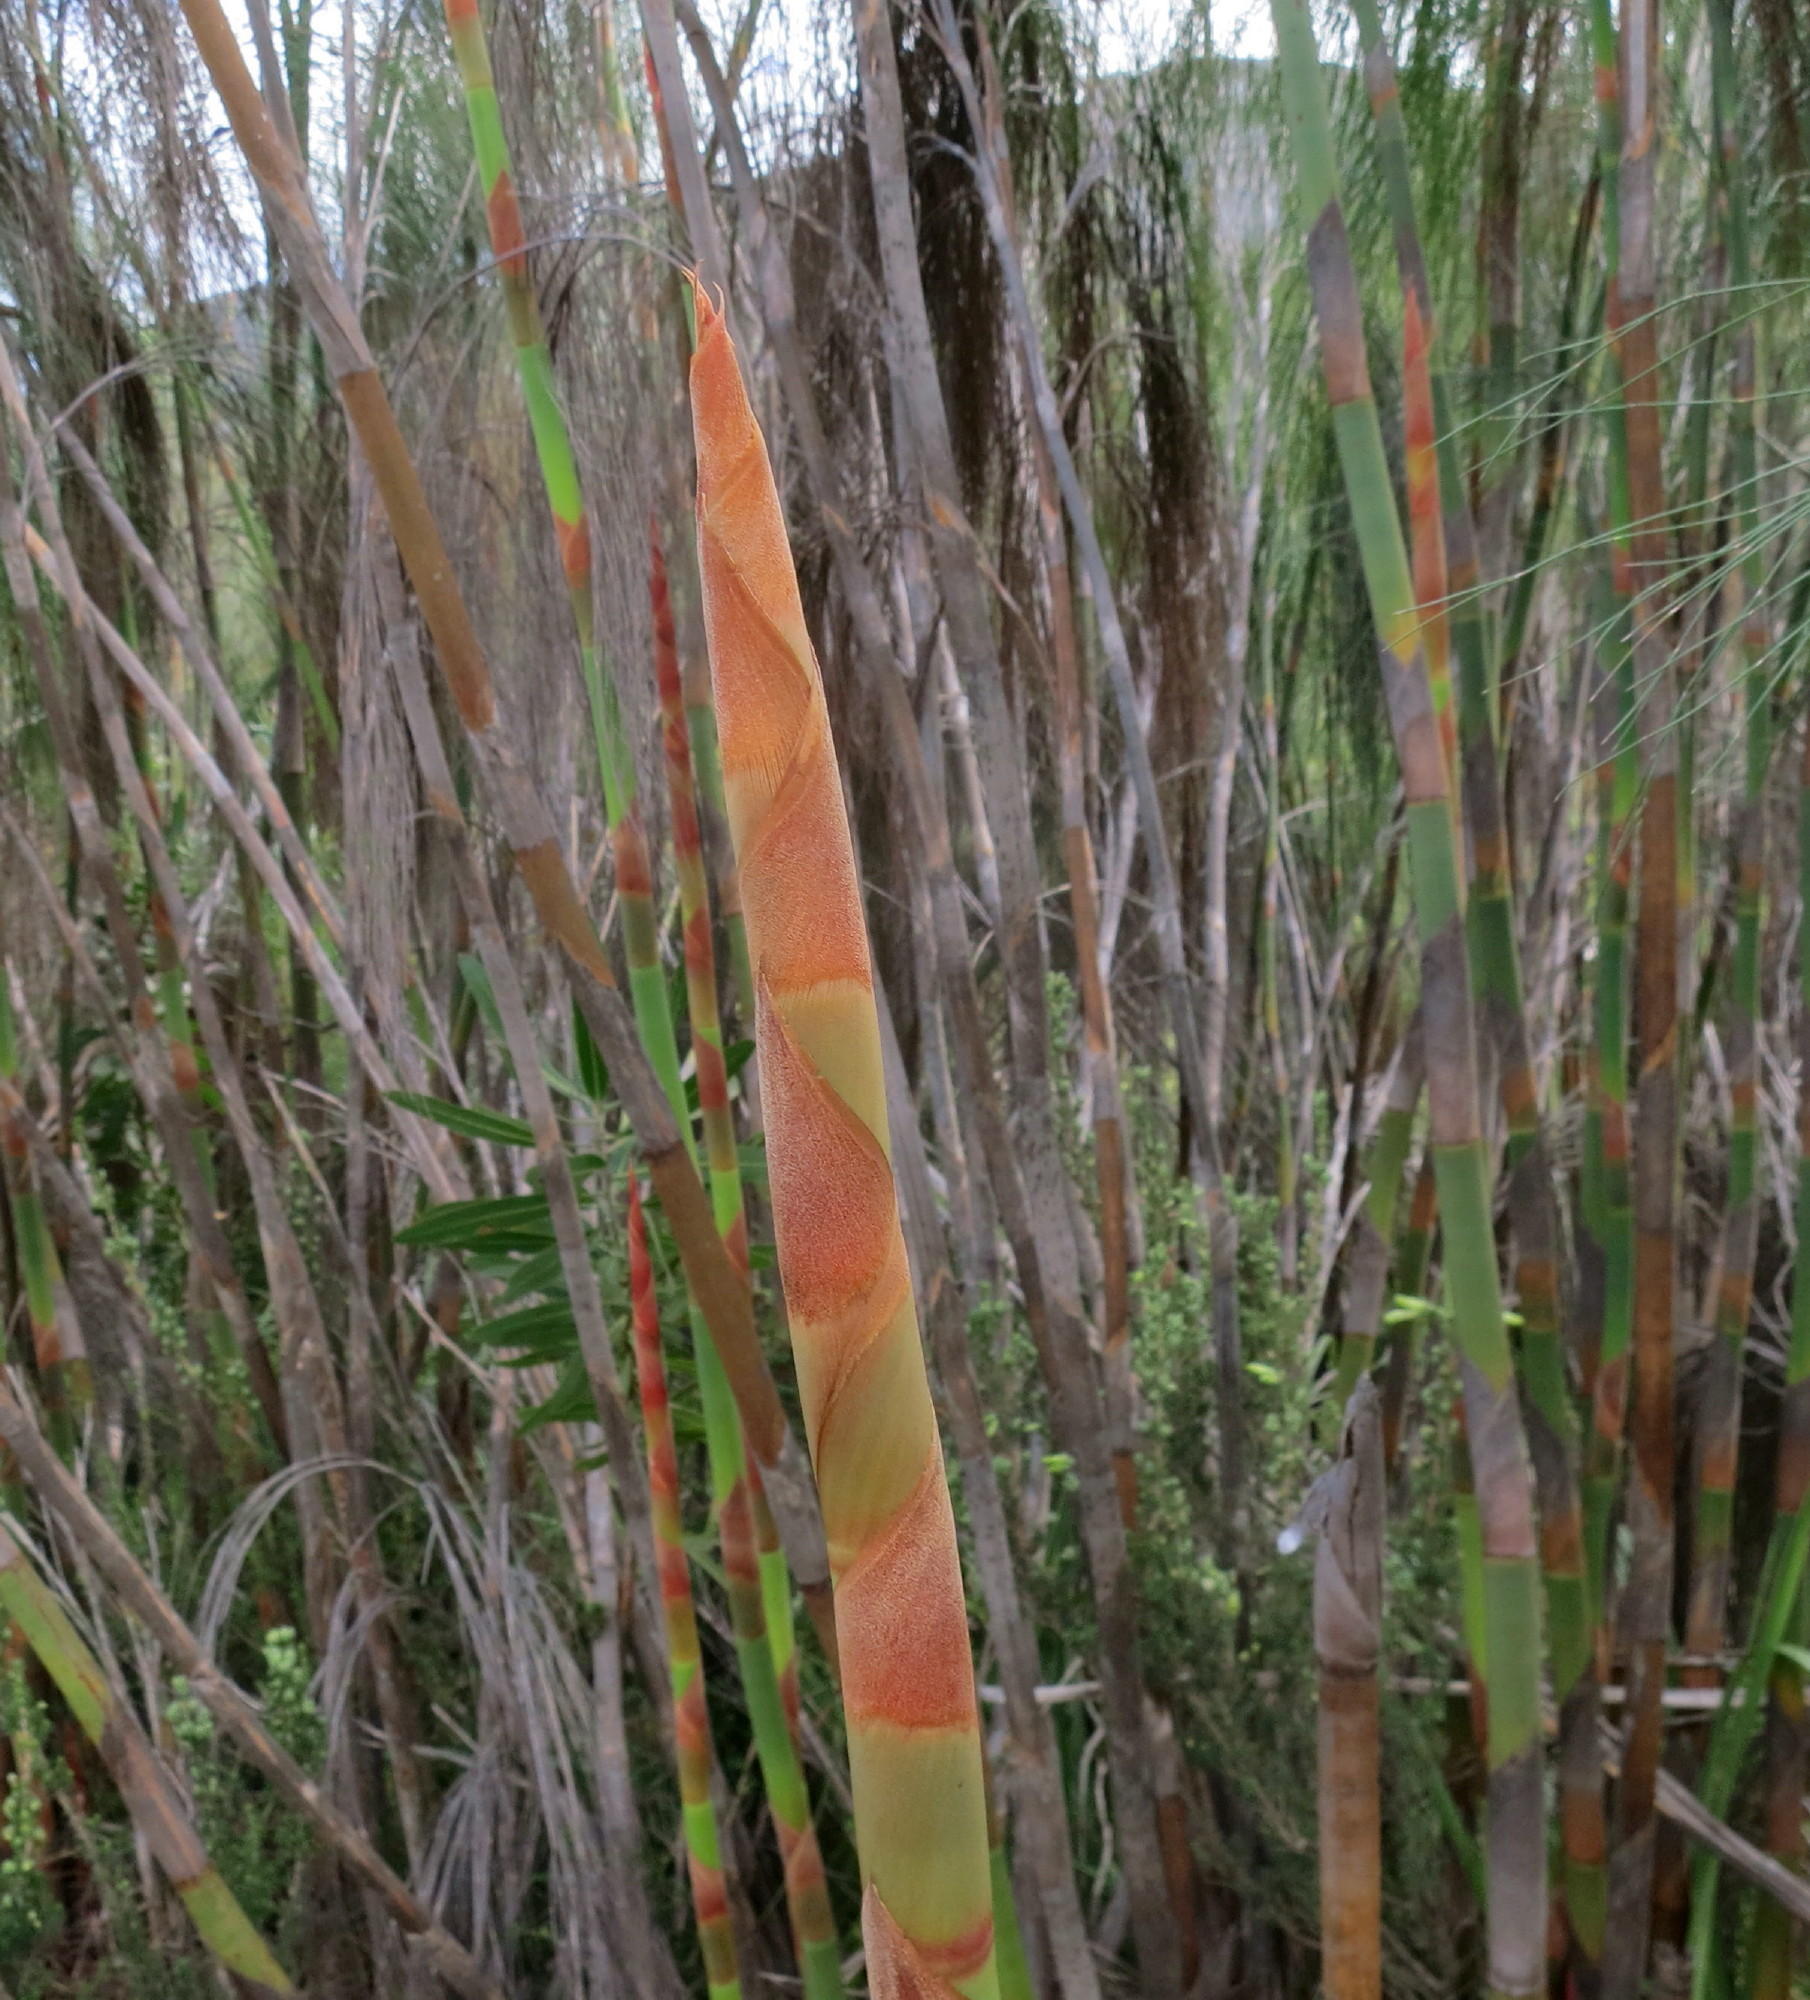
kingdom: Plantae
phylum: Tracheophyta
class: Liliopsida
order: Poales
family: Restionaceae
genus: Cannomois
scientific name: Cannomois grandis
